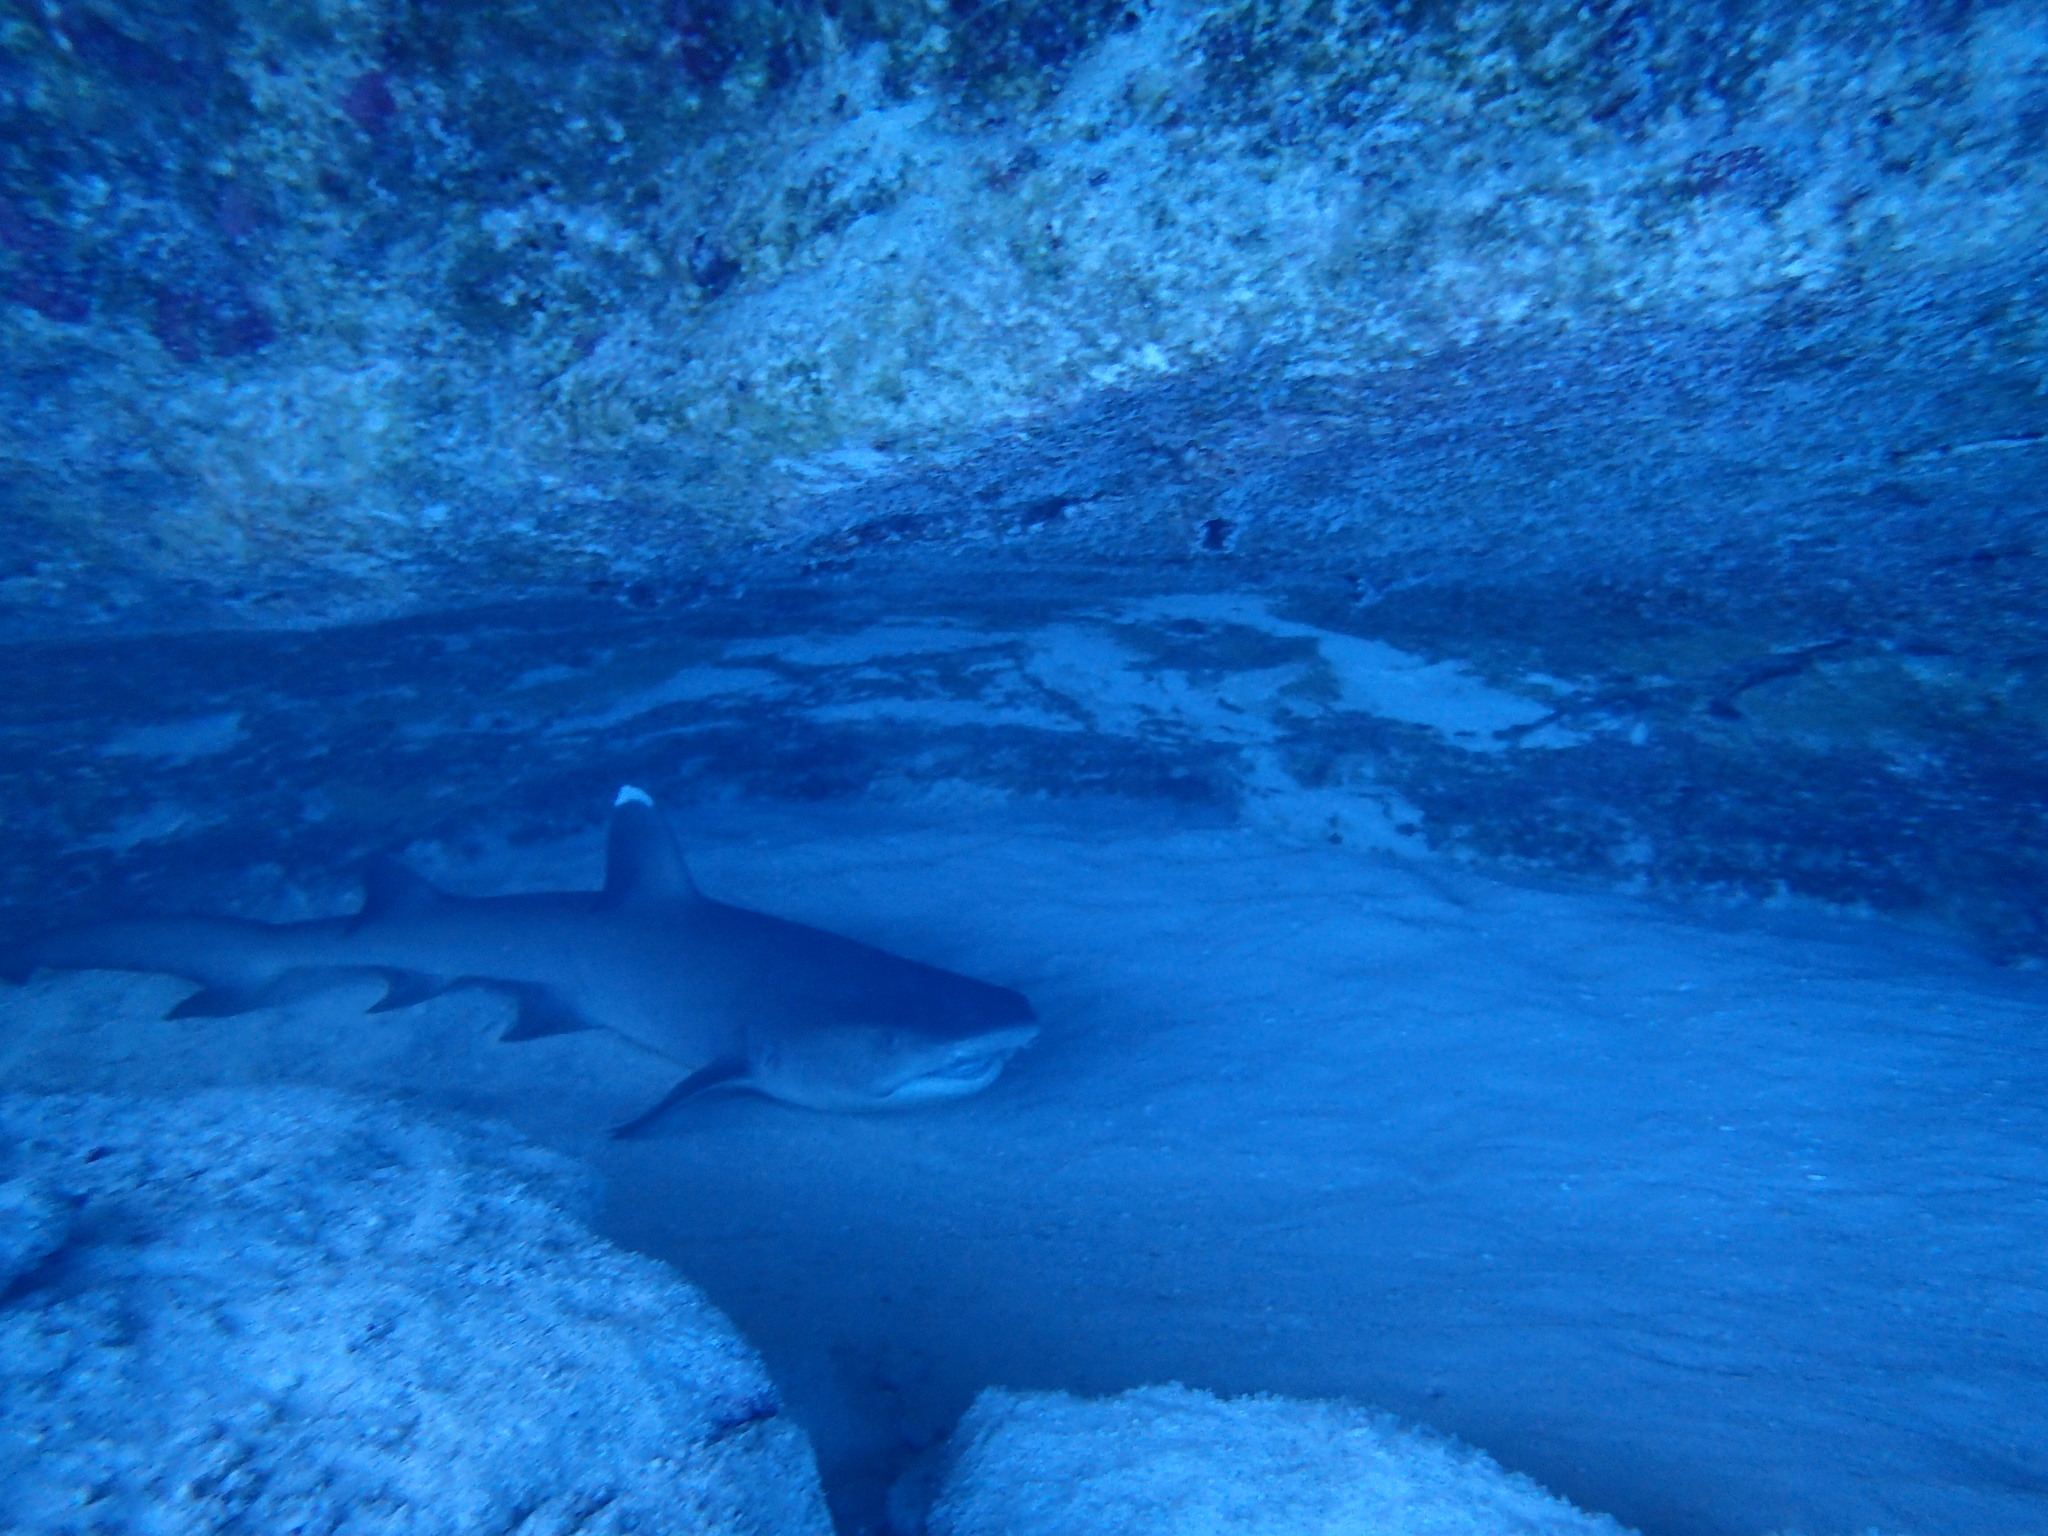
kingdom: Animalia
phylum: Chordata
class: Elasmobranchii
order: Carcharhiniformes
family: Carcharhinidae
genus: Triaenodon
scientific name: Triaenodon obesus
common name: Whitetip reef shark
